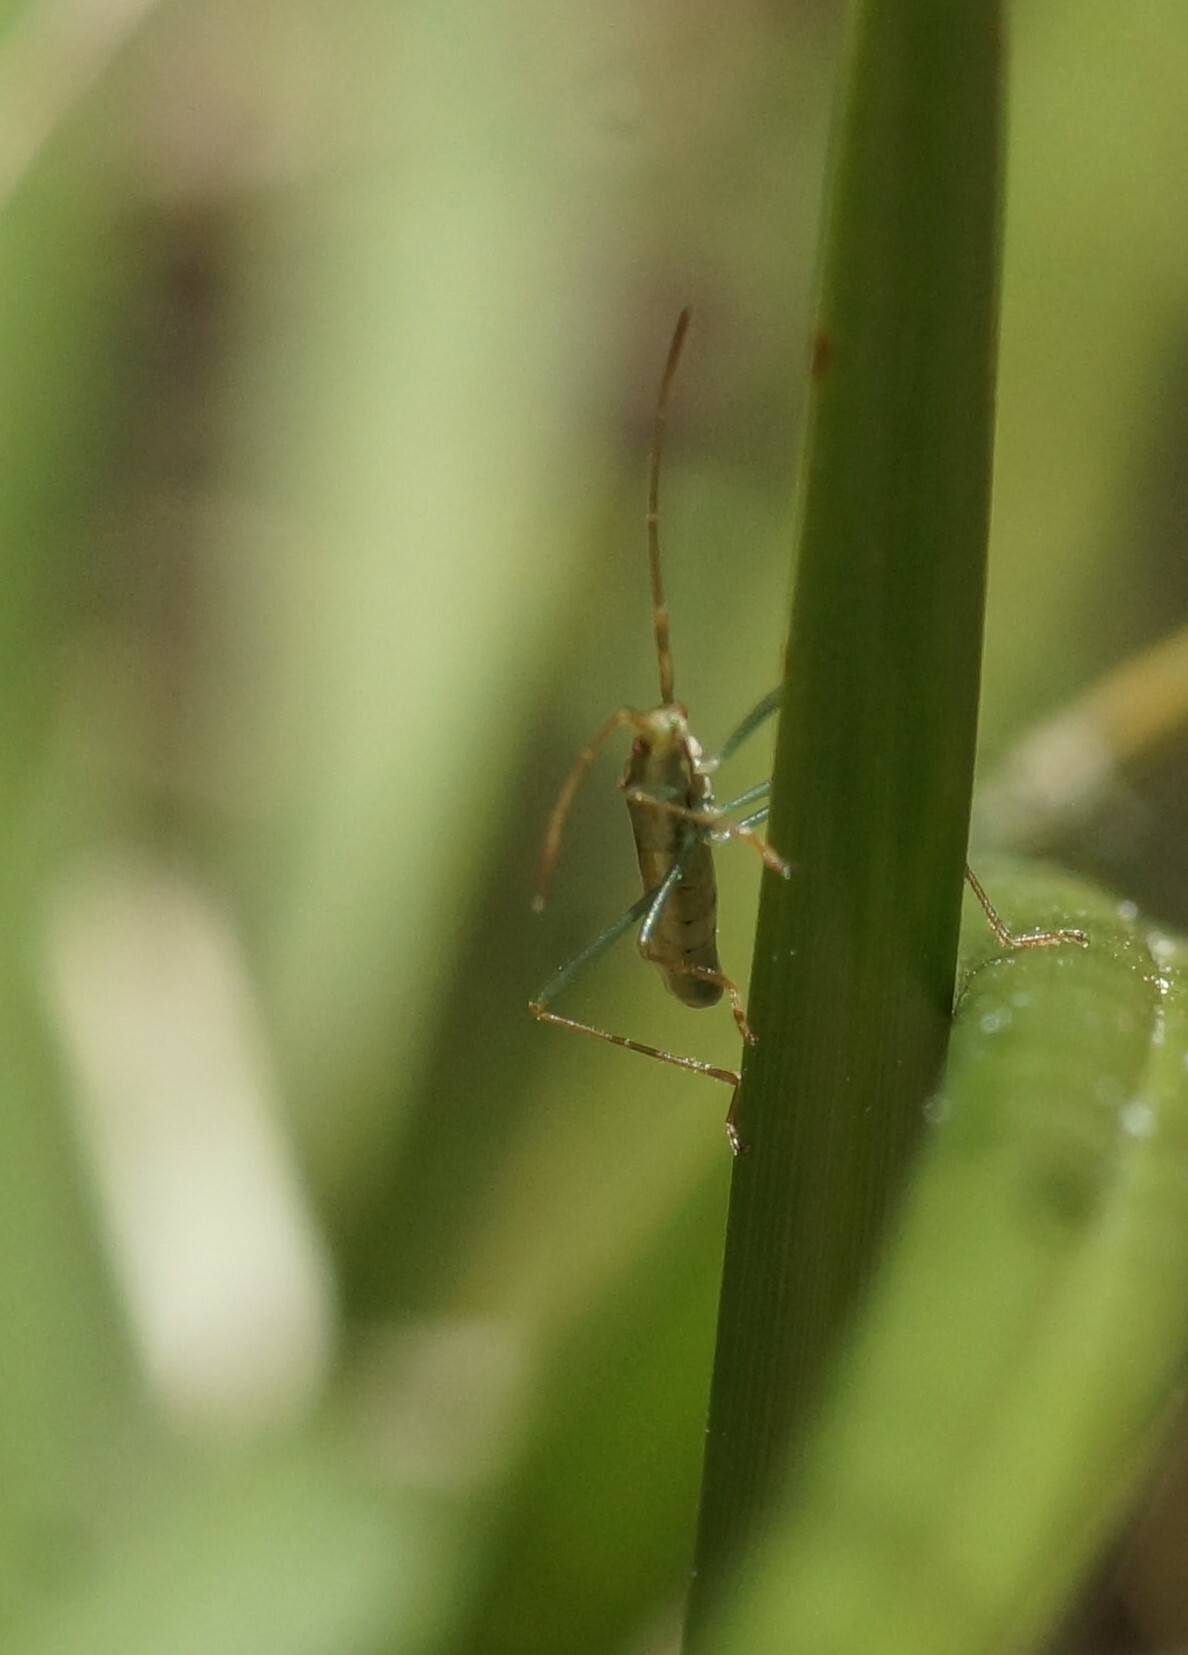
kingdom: Animalia
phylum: Arthropoda
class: Insecta
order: Hemiptera
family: Alydidae
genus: Mutusca
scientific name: Mutusca brevicornis
